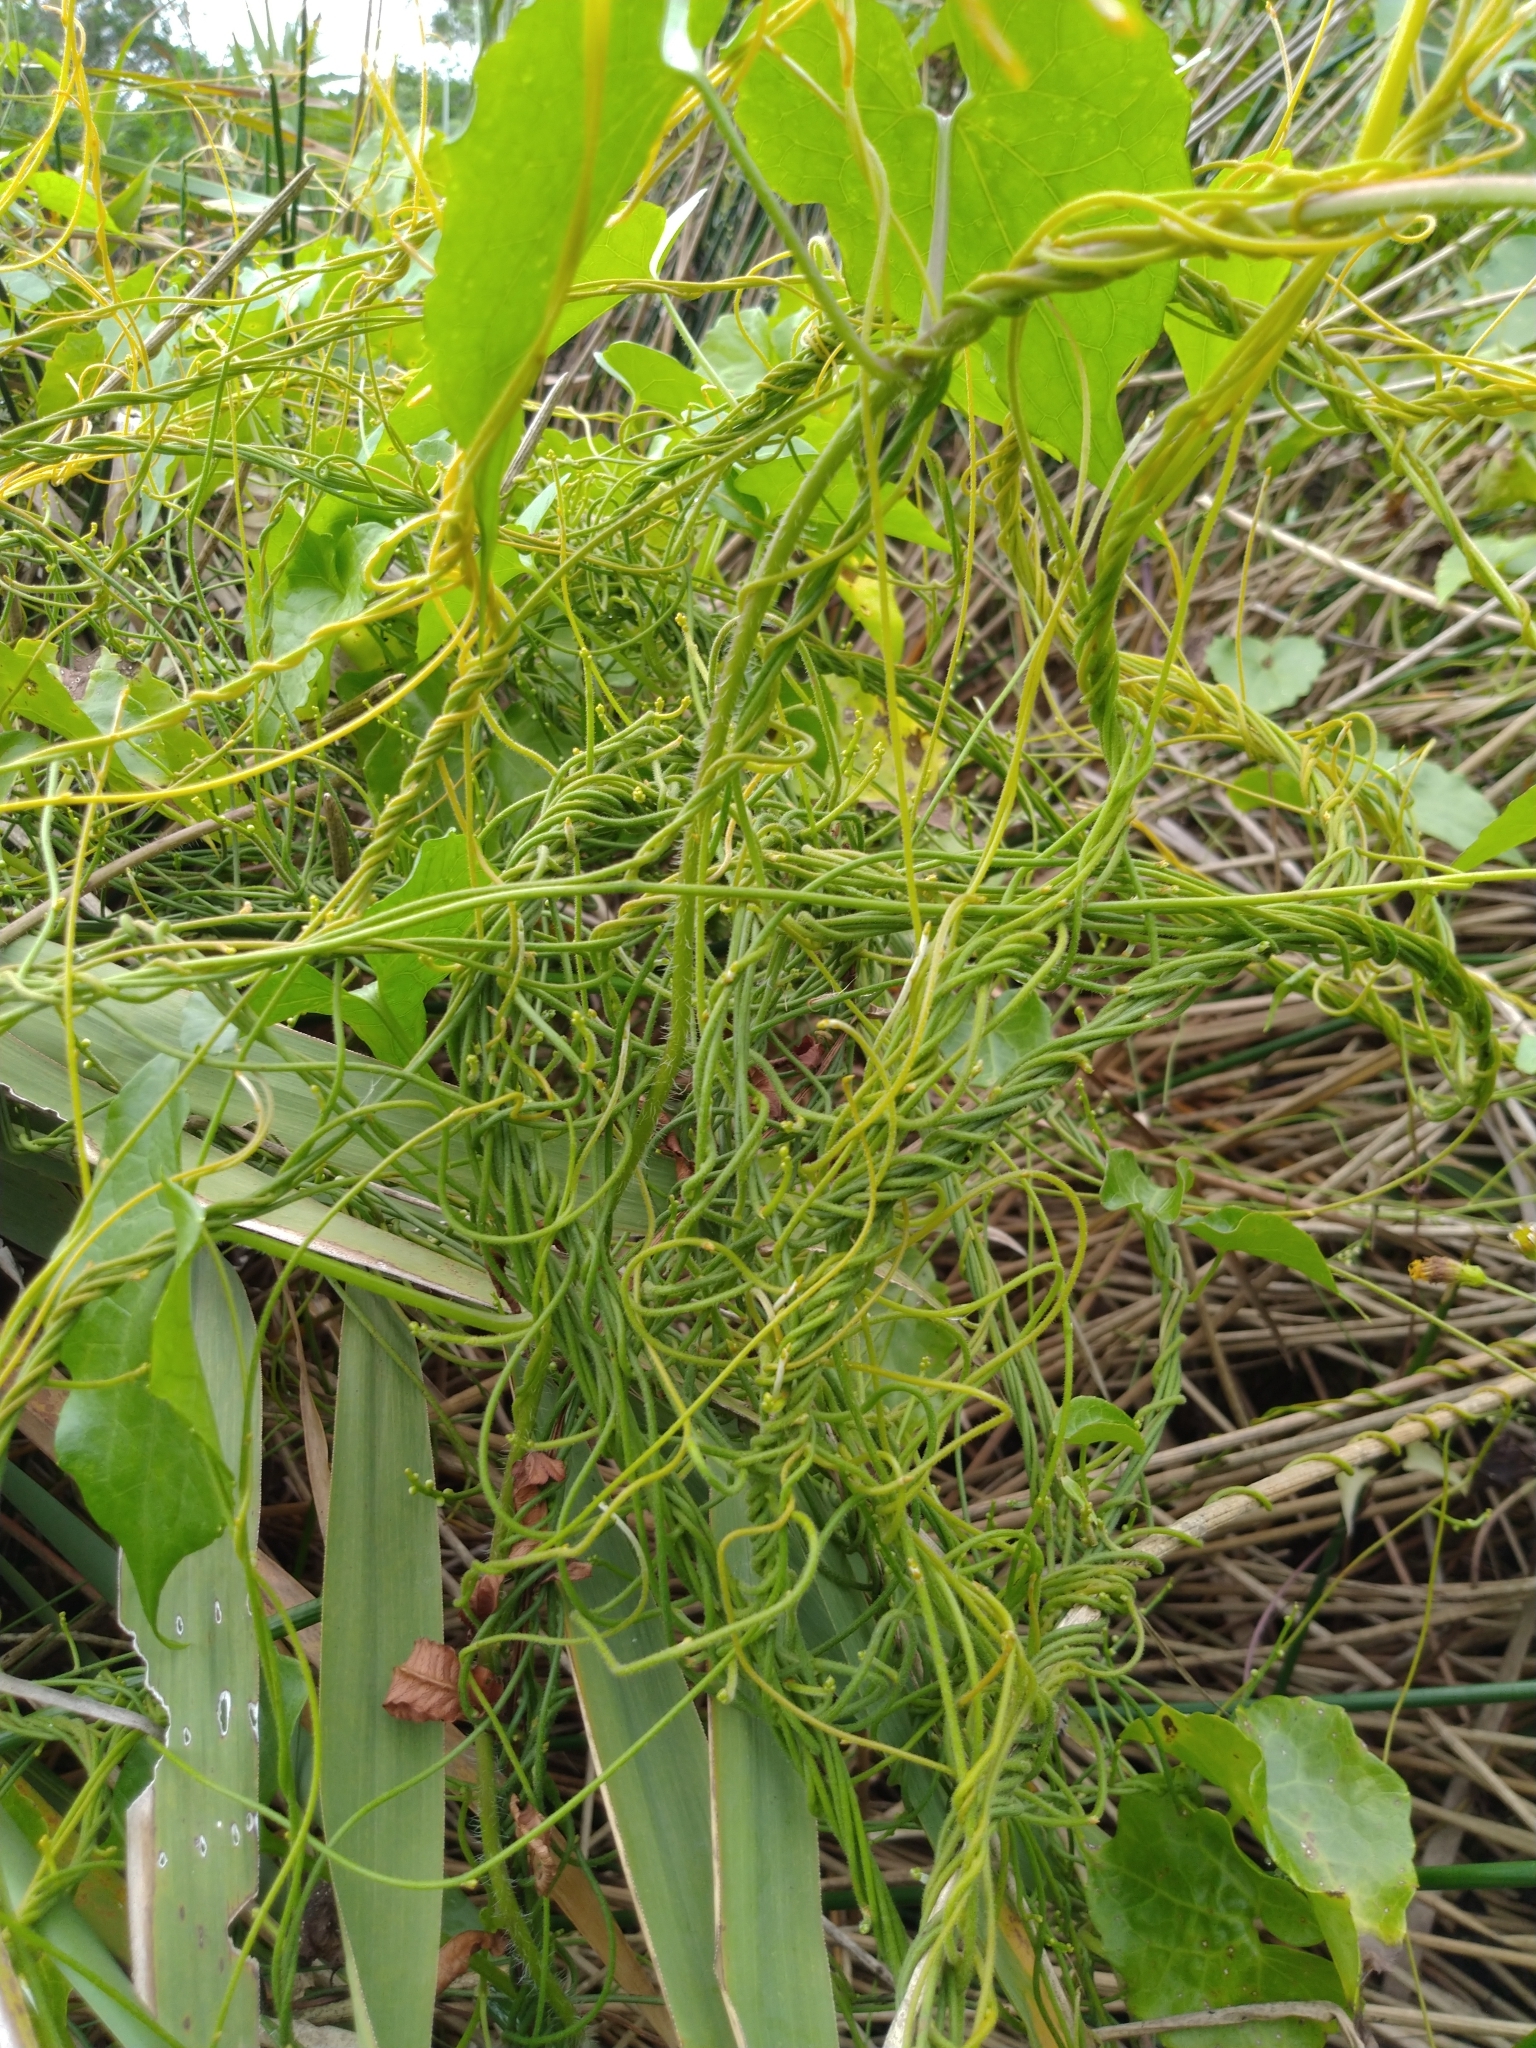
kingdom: Plantae
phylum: Tracheophyta
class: Magnoliopsida
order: Laurales
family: Lauraceae
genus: Cassytha
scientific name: Cassytha filiformis
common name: Dodder-laurel
